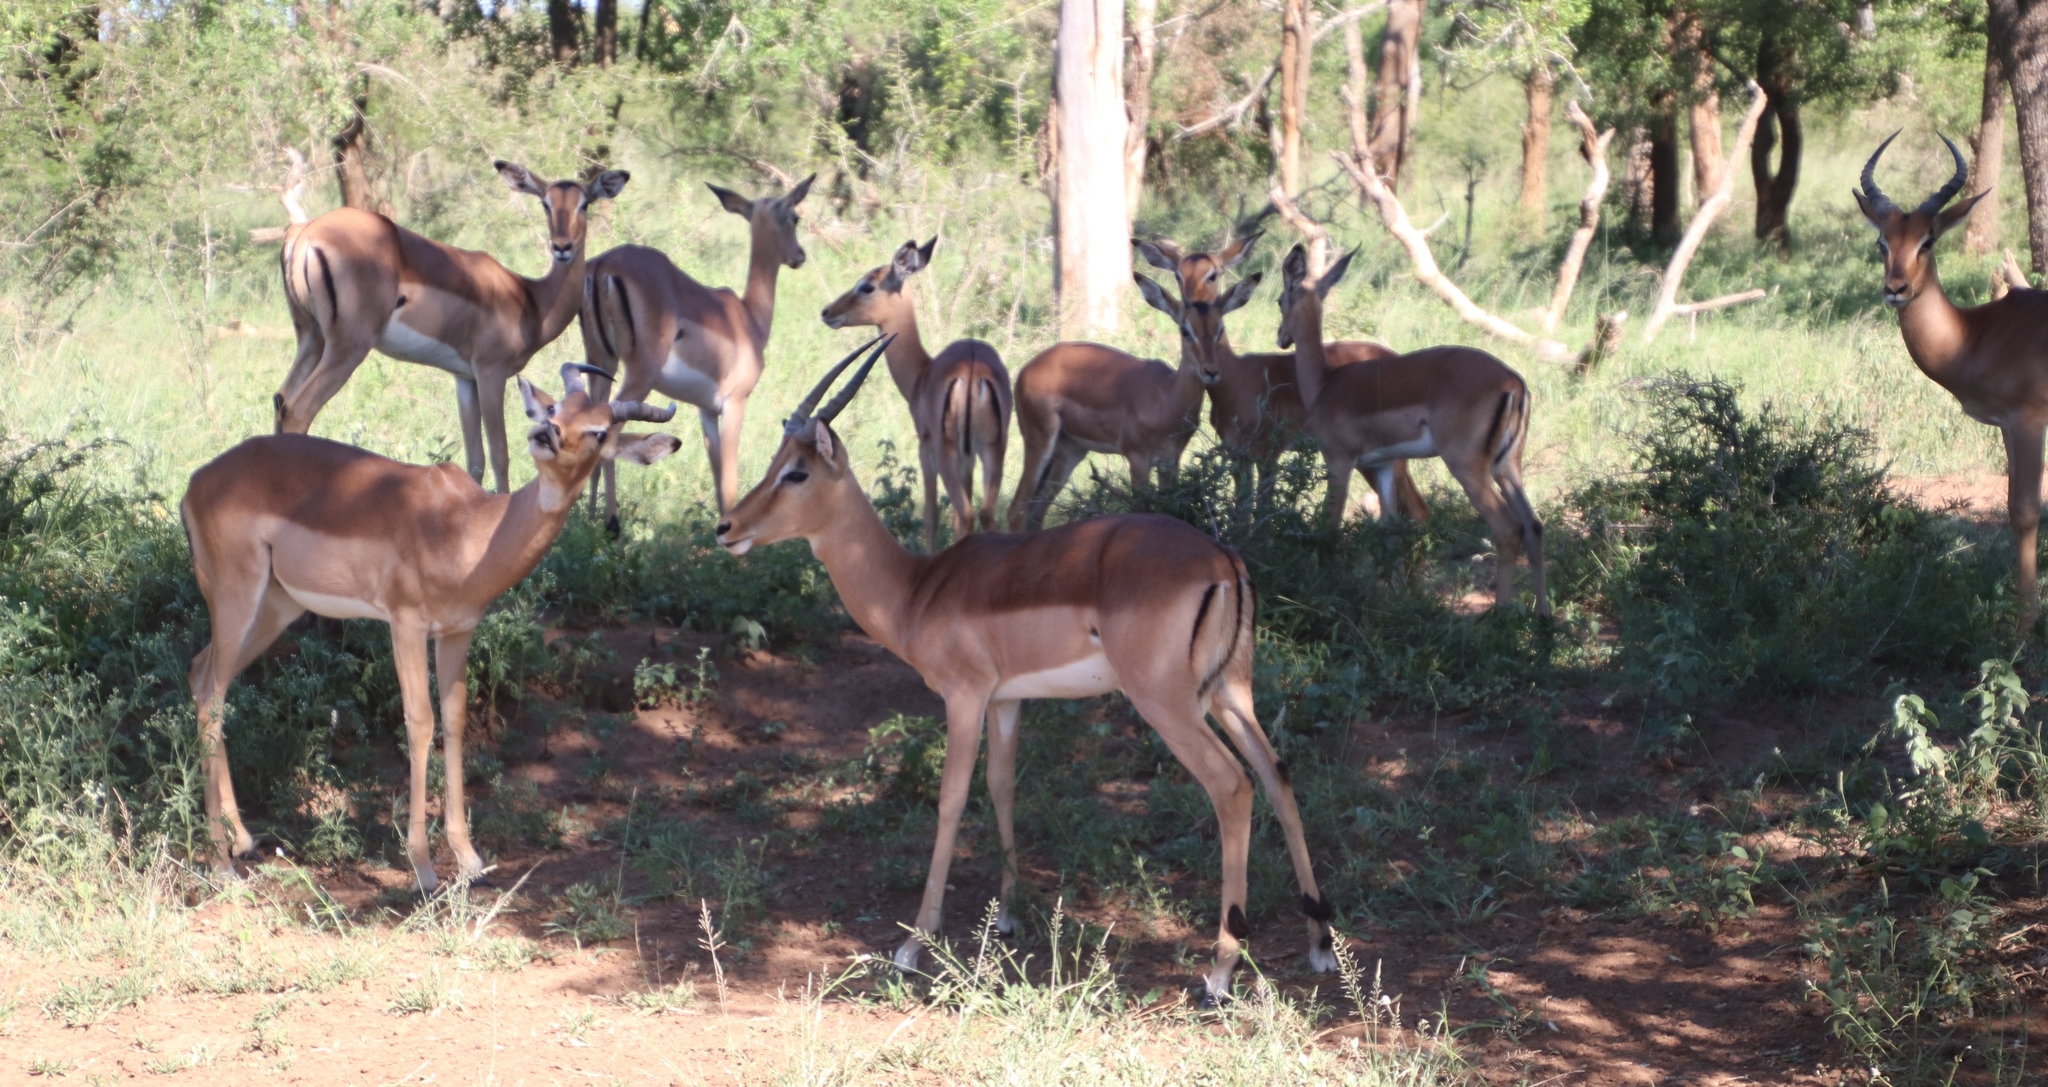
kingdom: Animalia
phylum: Chordata
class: Mammalia
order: Artiodactyla
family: Bovidae
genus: Aepyceros
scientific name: Aepyceros melampus
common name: Impala
